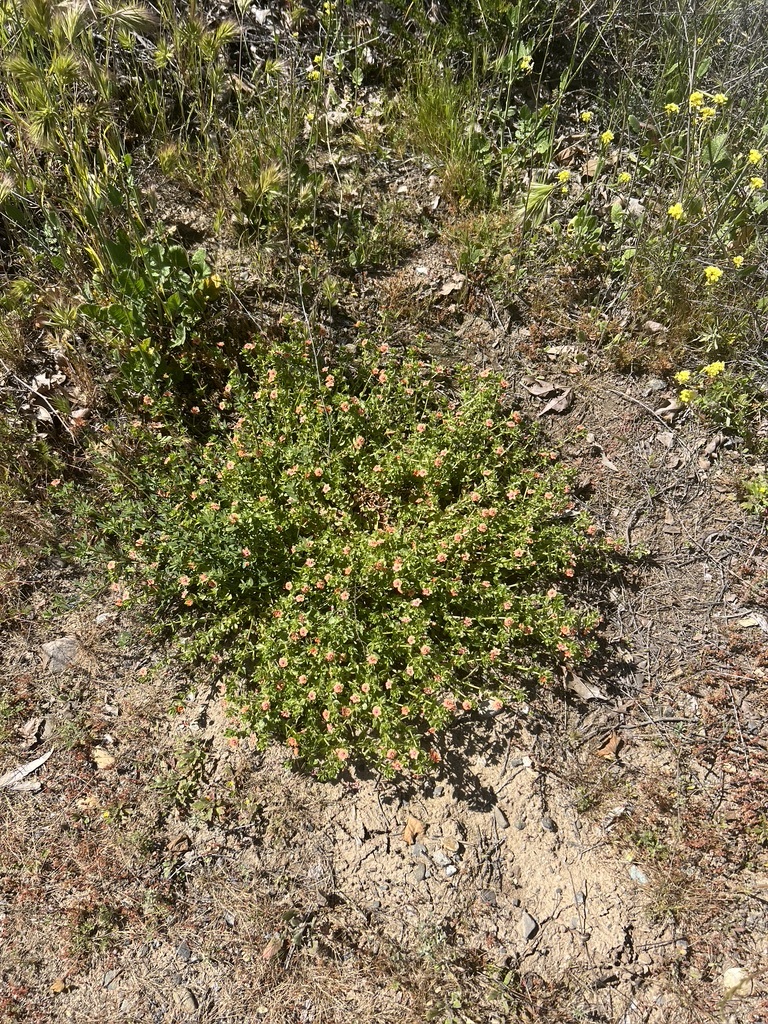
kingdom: Plantae
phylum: Tracheophyta
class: Magnoliopsida
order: Ericales
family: Primulaceae
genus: Lysimachia
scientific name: Lysimachia arvensis
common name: Scarlet pimpernel
